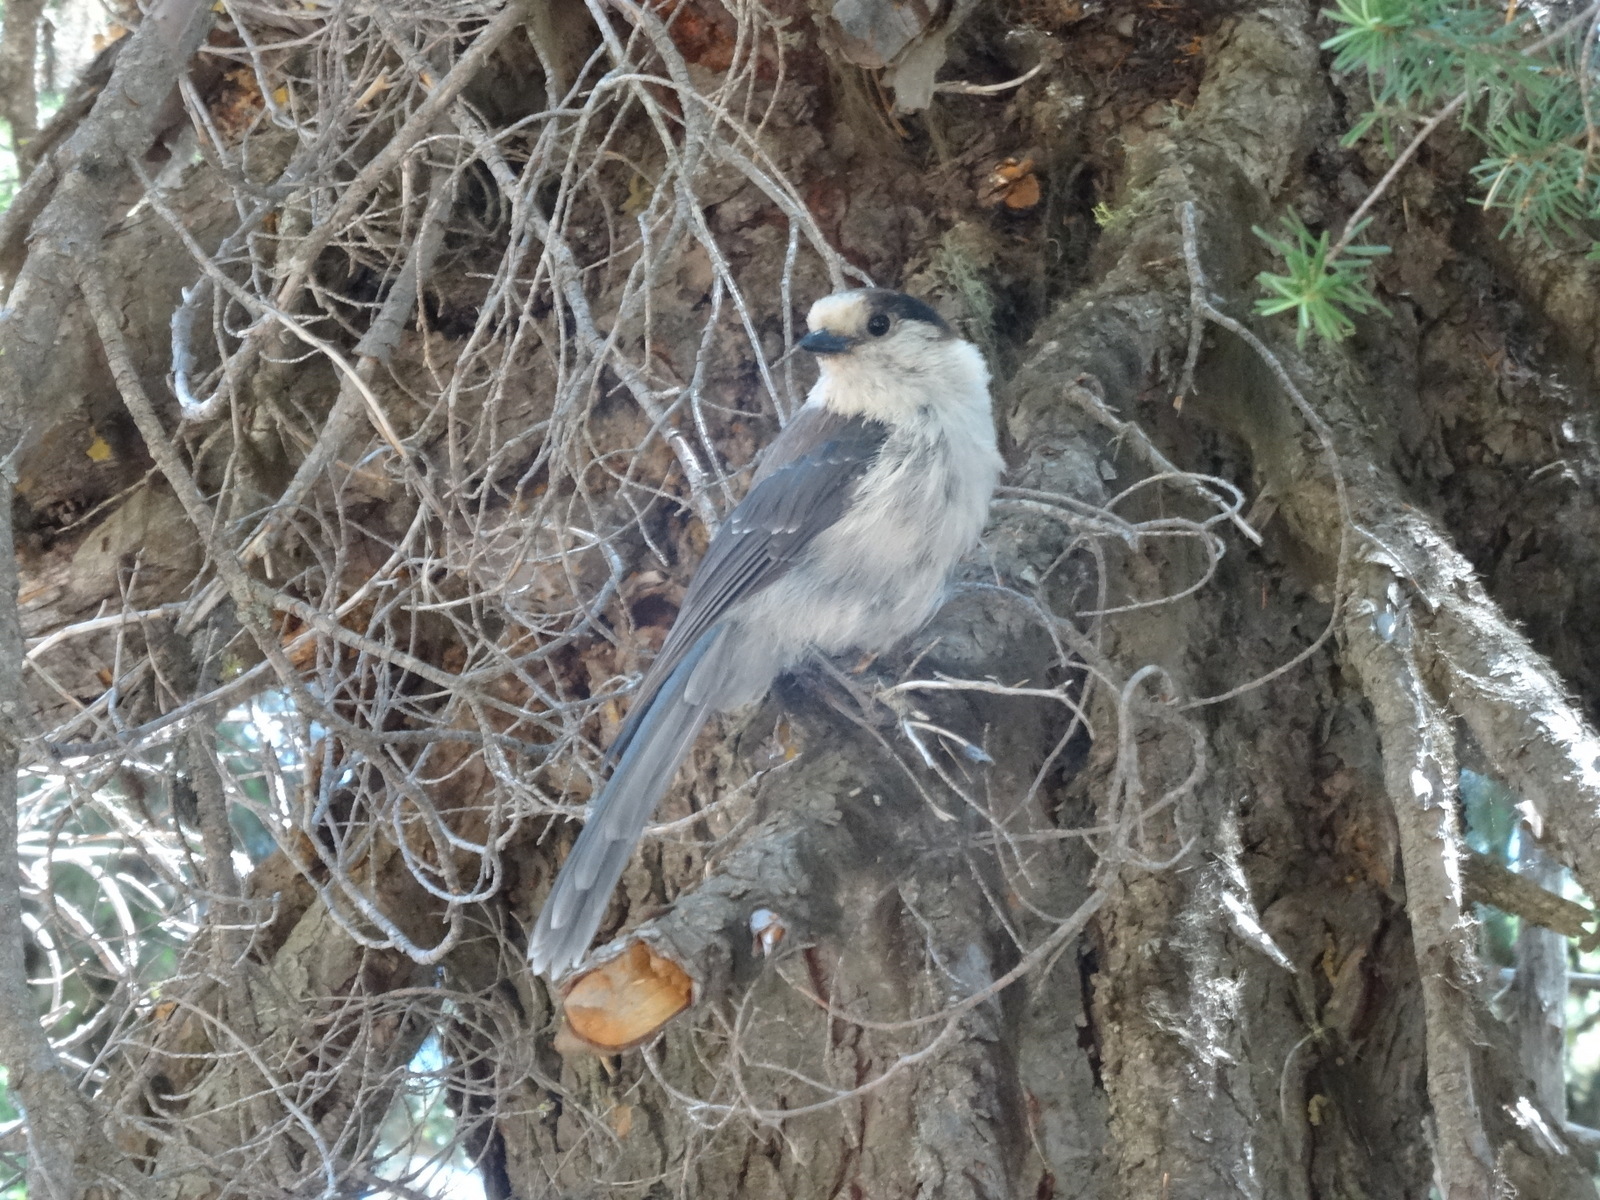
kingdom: Animalia
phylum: Chordata
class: Aves
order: Passeriformes
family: Corvidae
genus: Perisoreus
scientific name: Perisoreus canadensis
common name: Gray jay
